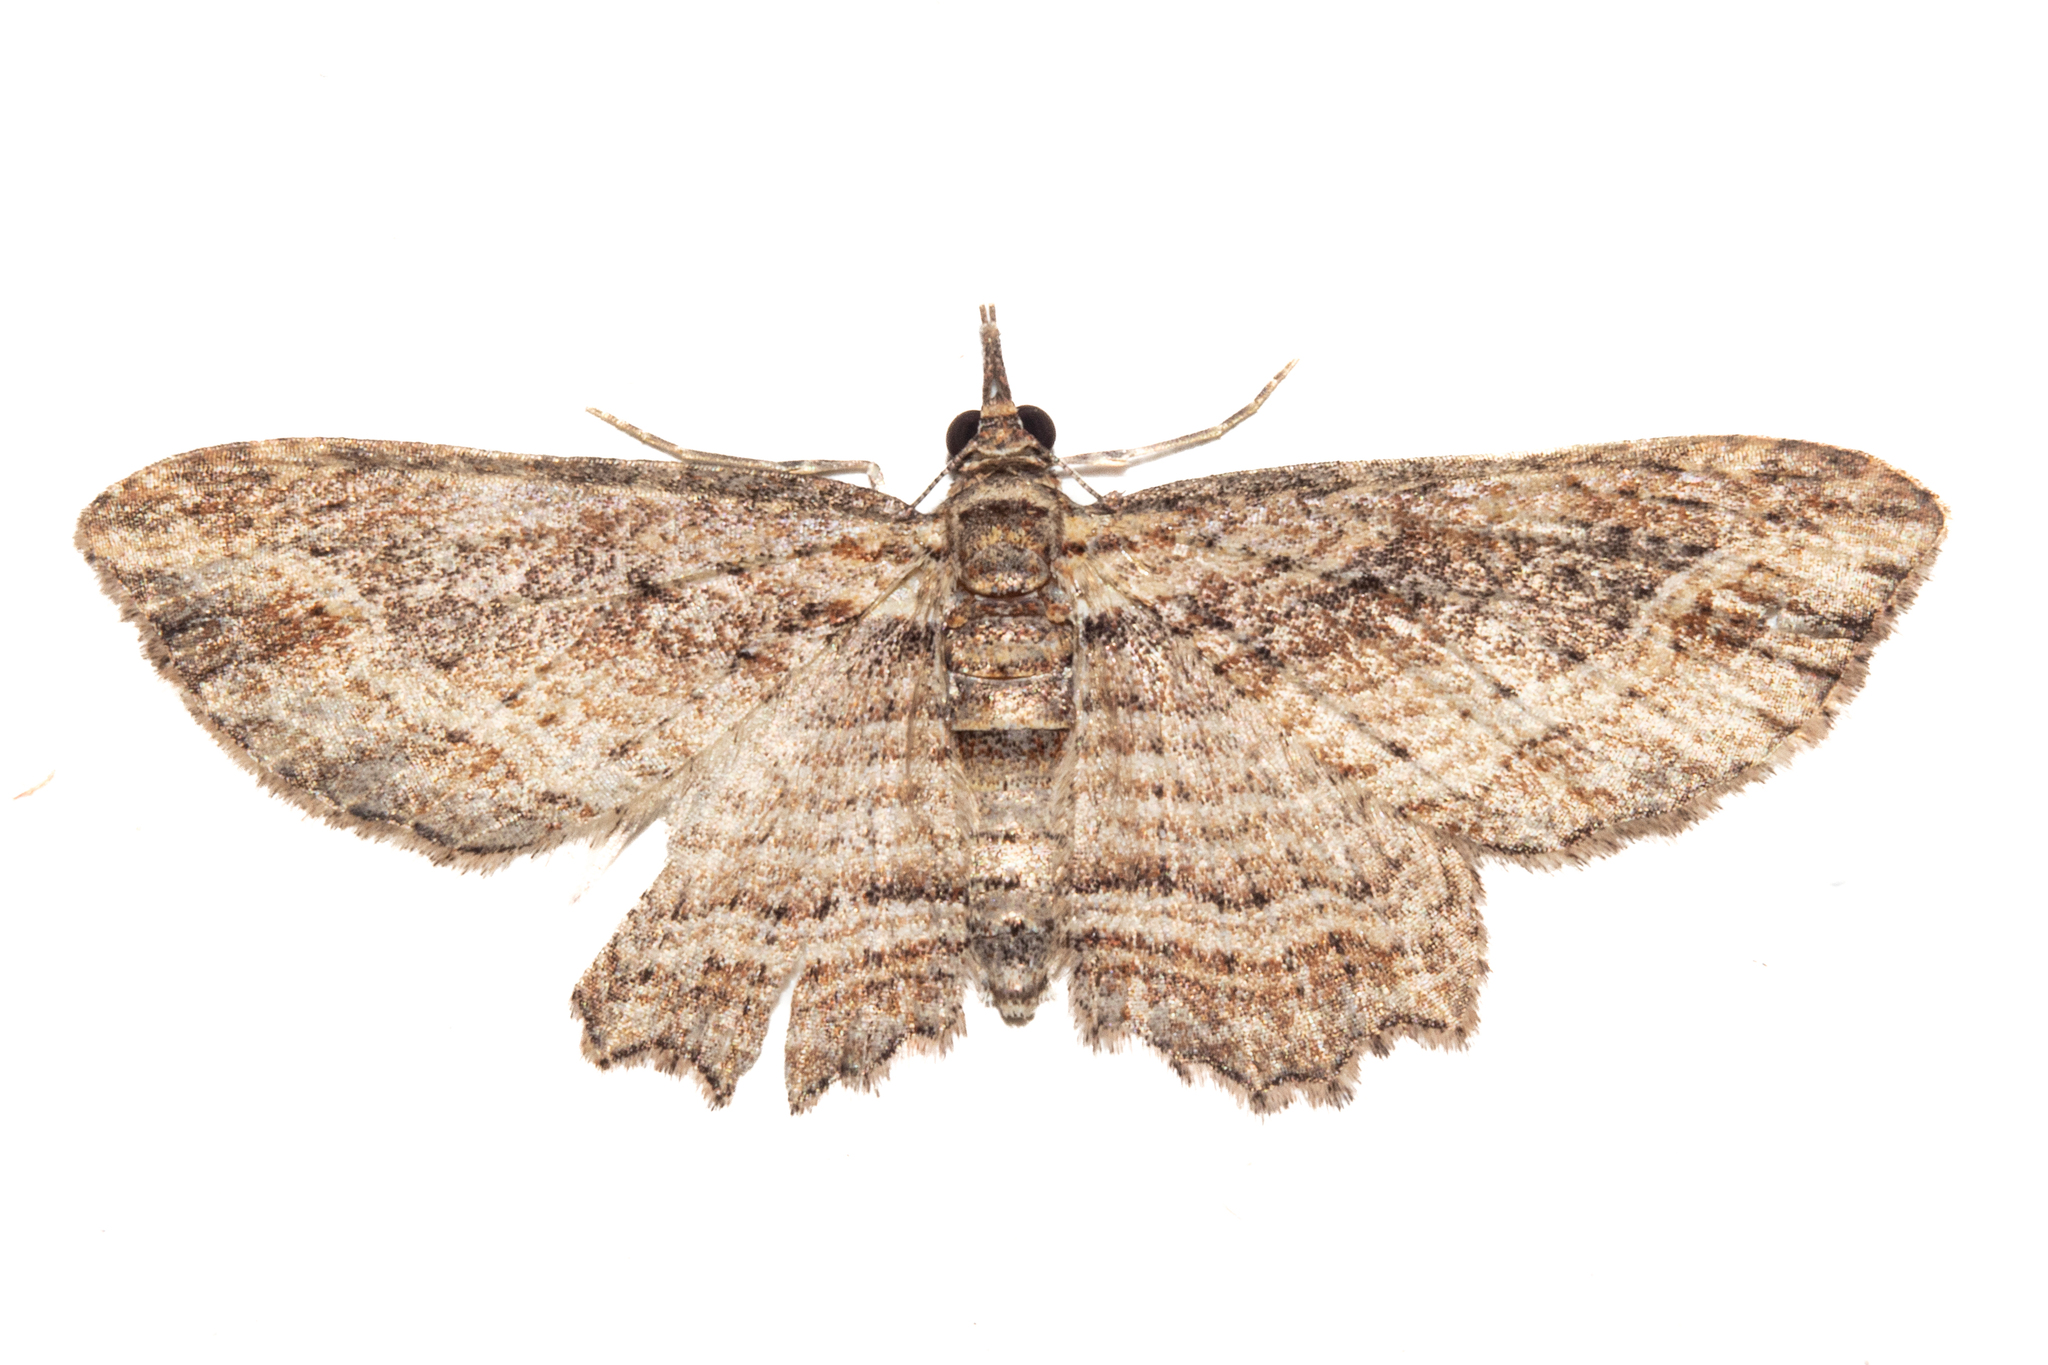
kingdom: Animalia
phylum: Arthropoda
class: Insecta
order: Lepidoptera
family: Geometridae
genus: Chloroclystis
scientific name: Chloroclystis filata
